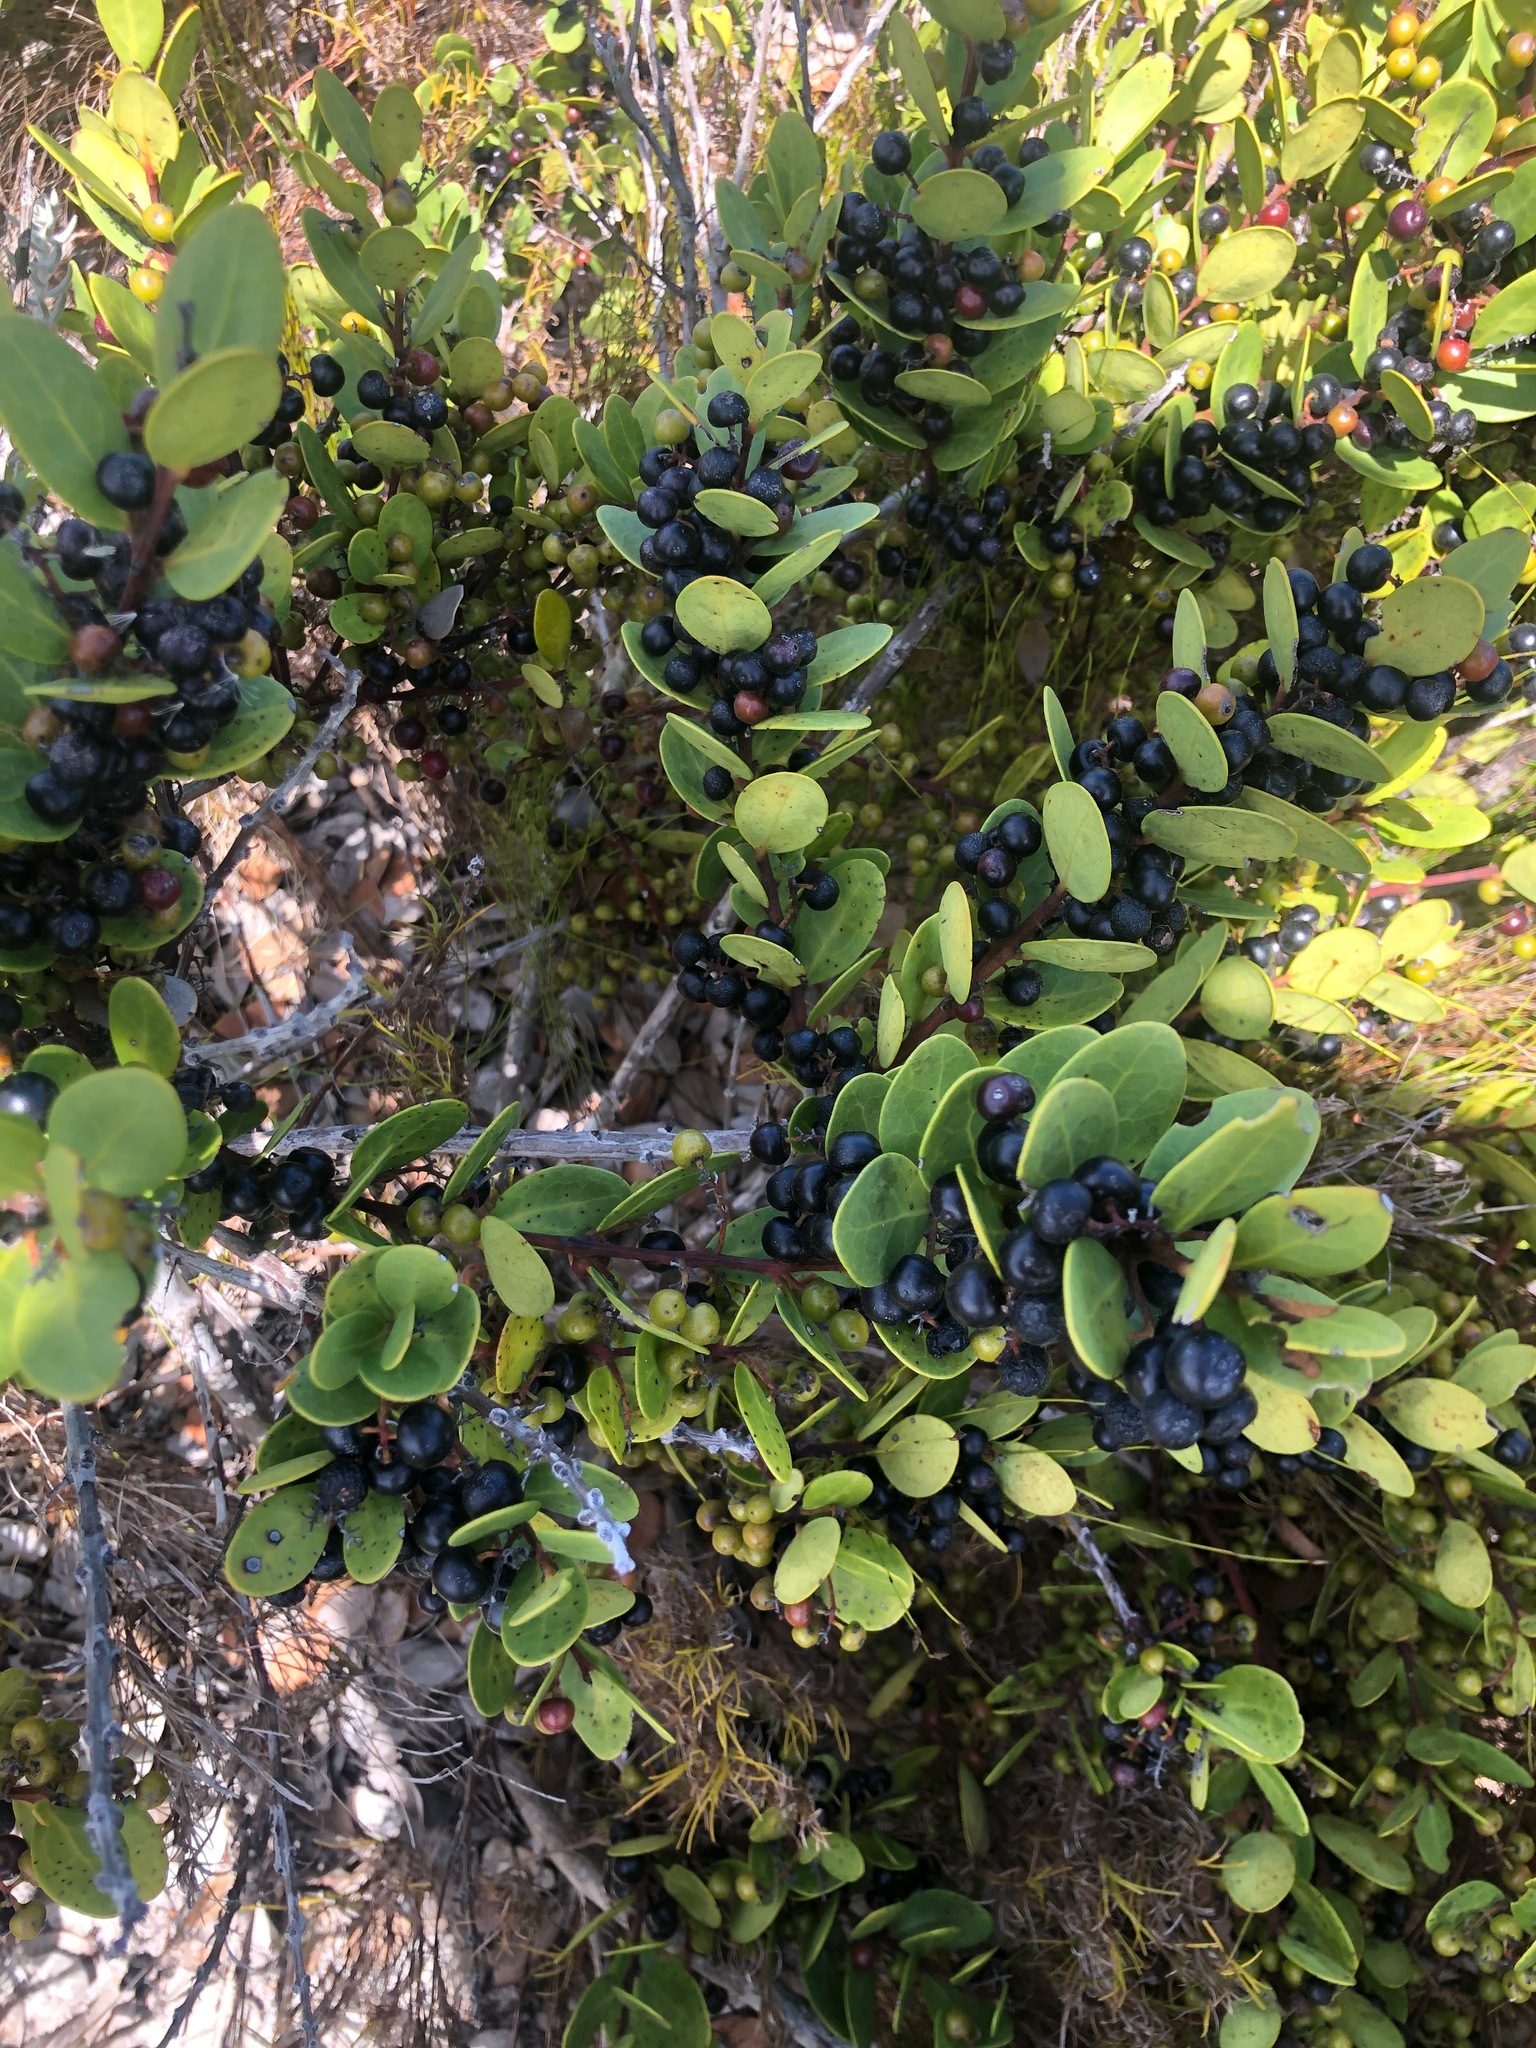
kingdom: Plantae
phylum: Tracheophyta
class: Magnoliopsida
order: Ericales
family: Ebenaceae
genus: Euclea
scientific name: Euclea racemosa
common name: Dune guarri
